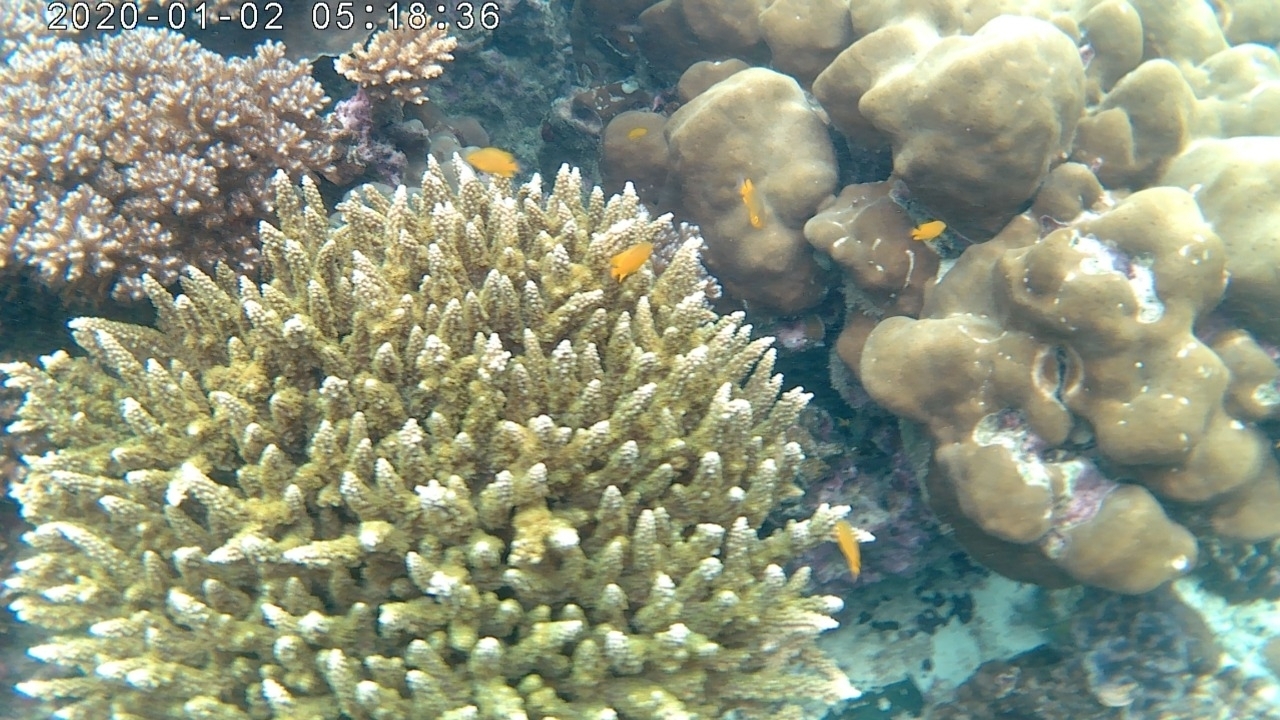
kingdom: Animalia
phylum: Chordata
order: Perciformes
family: Pomacentridae
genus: Pomacentrus
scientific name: Pomacentrus moluccensis
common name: Lemon damsel
